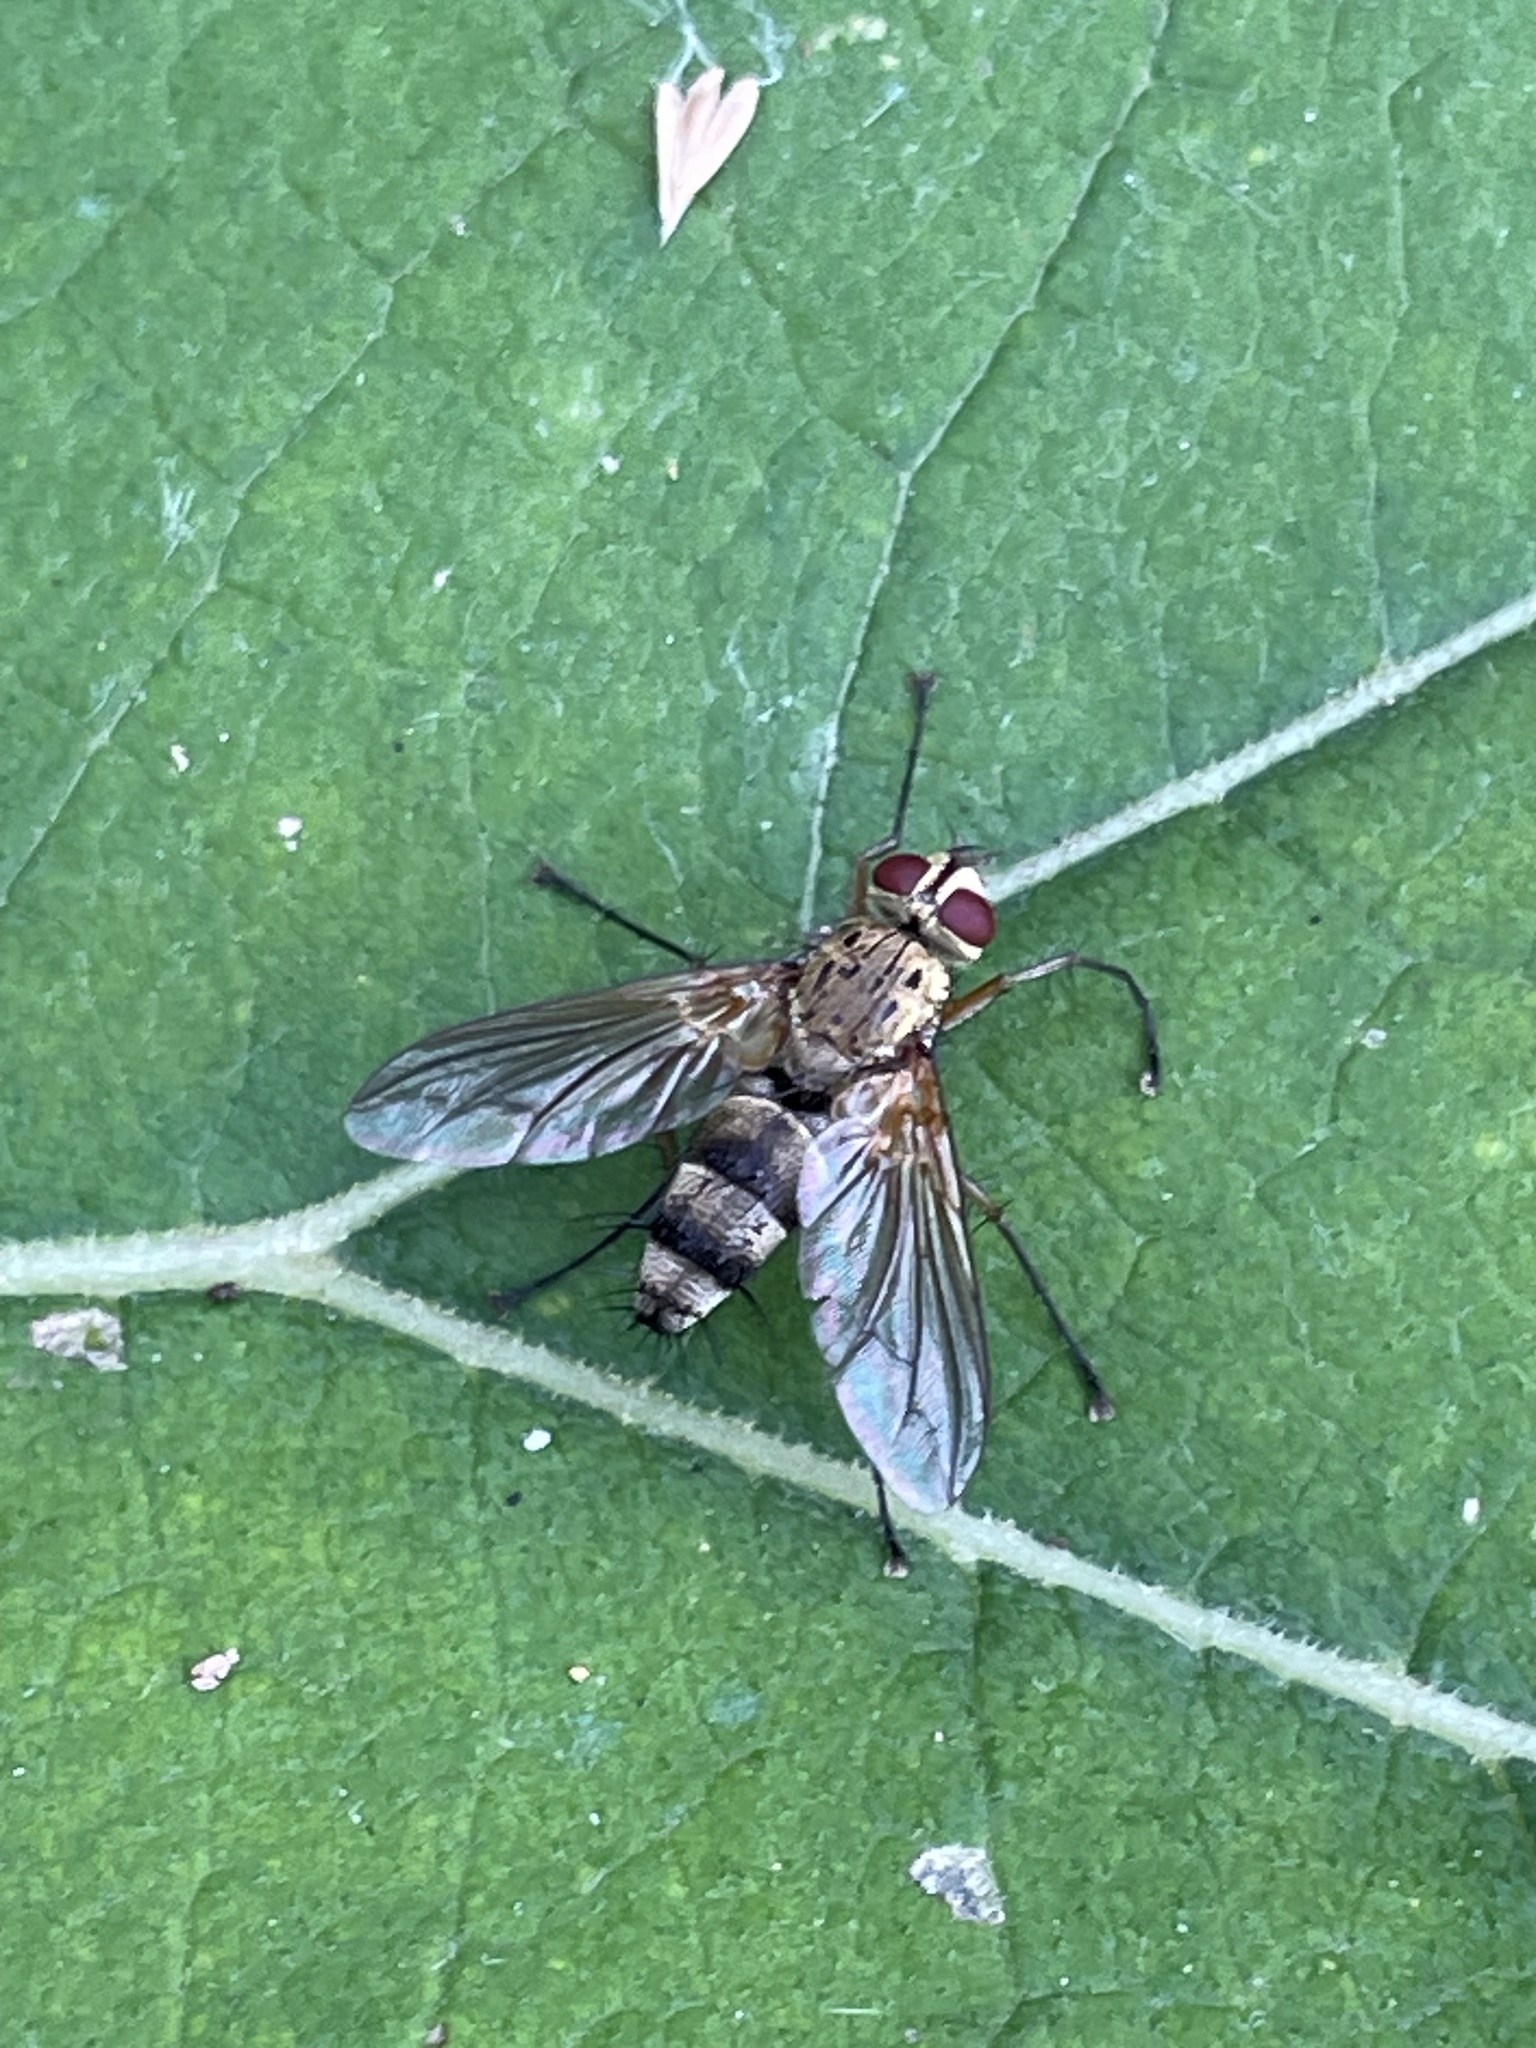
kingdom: Animalia
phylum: Arthropoda
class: Insecta
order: Diptera
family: Tachinidae
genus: Dexiosoma
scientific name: Dexiosoma caninum
